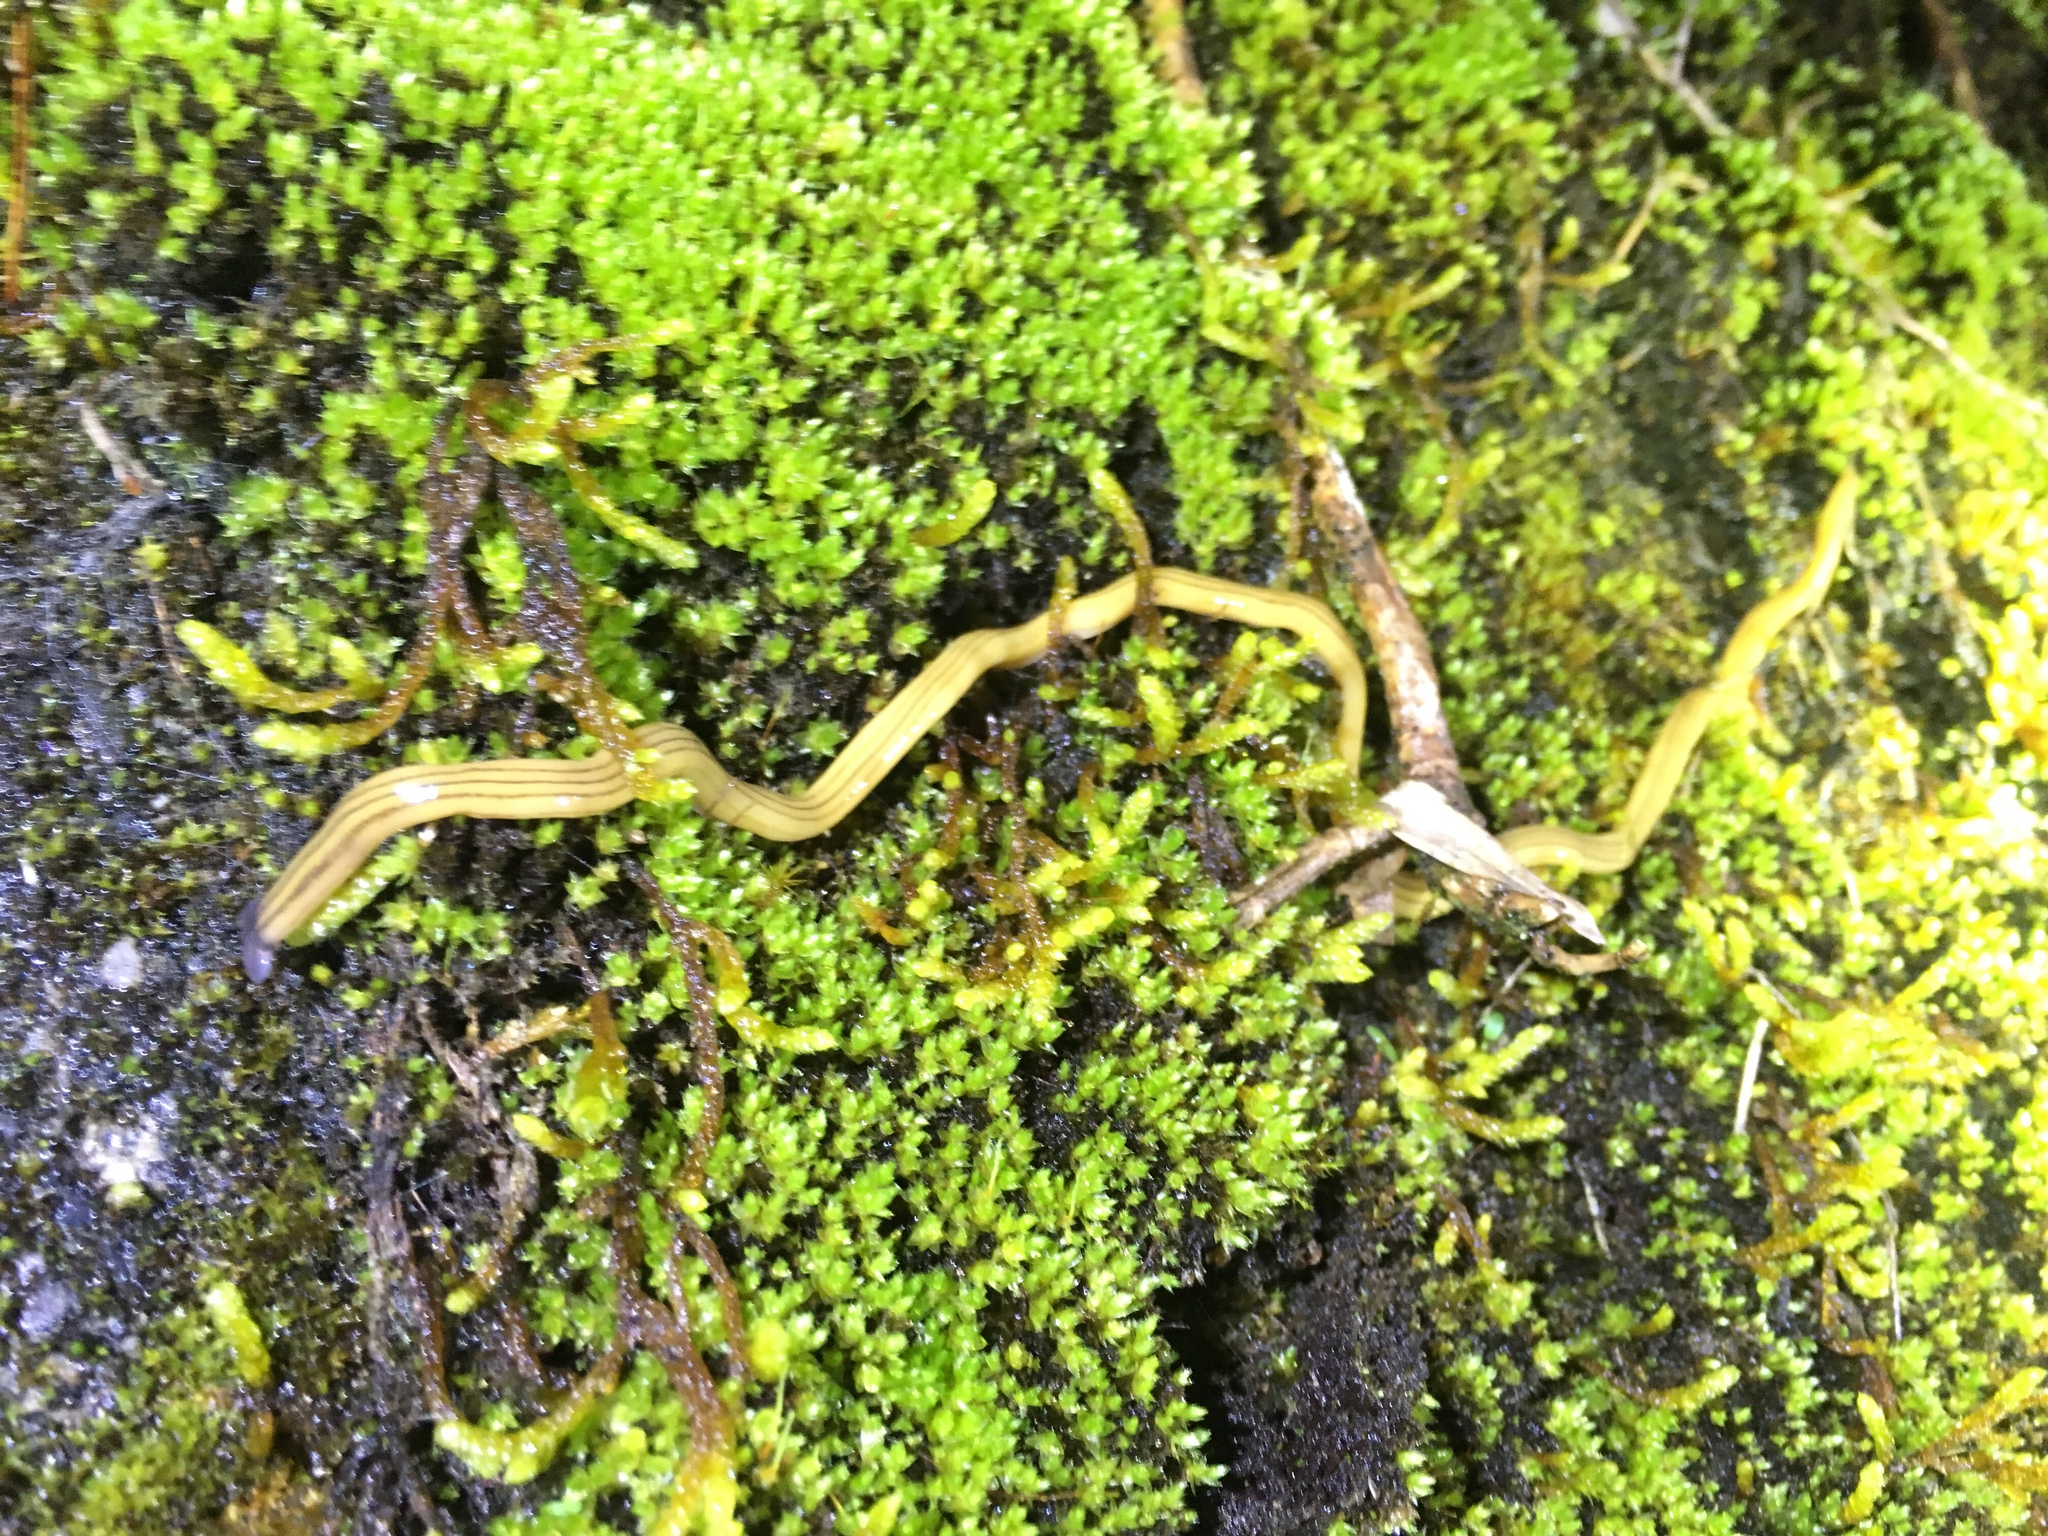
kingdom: Animalia
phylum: Platyhelminthes
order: Tricladida
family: Geoplanidae
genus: Bipalium
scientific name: Bipalium kewense
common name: Hammerhead flatworm
